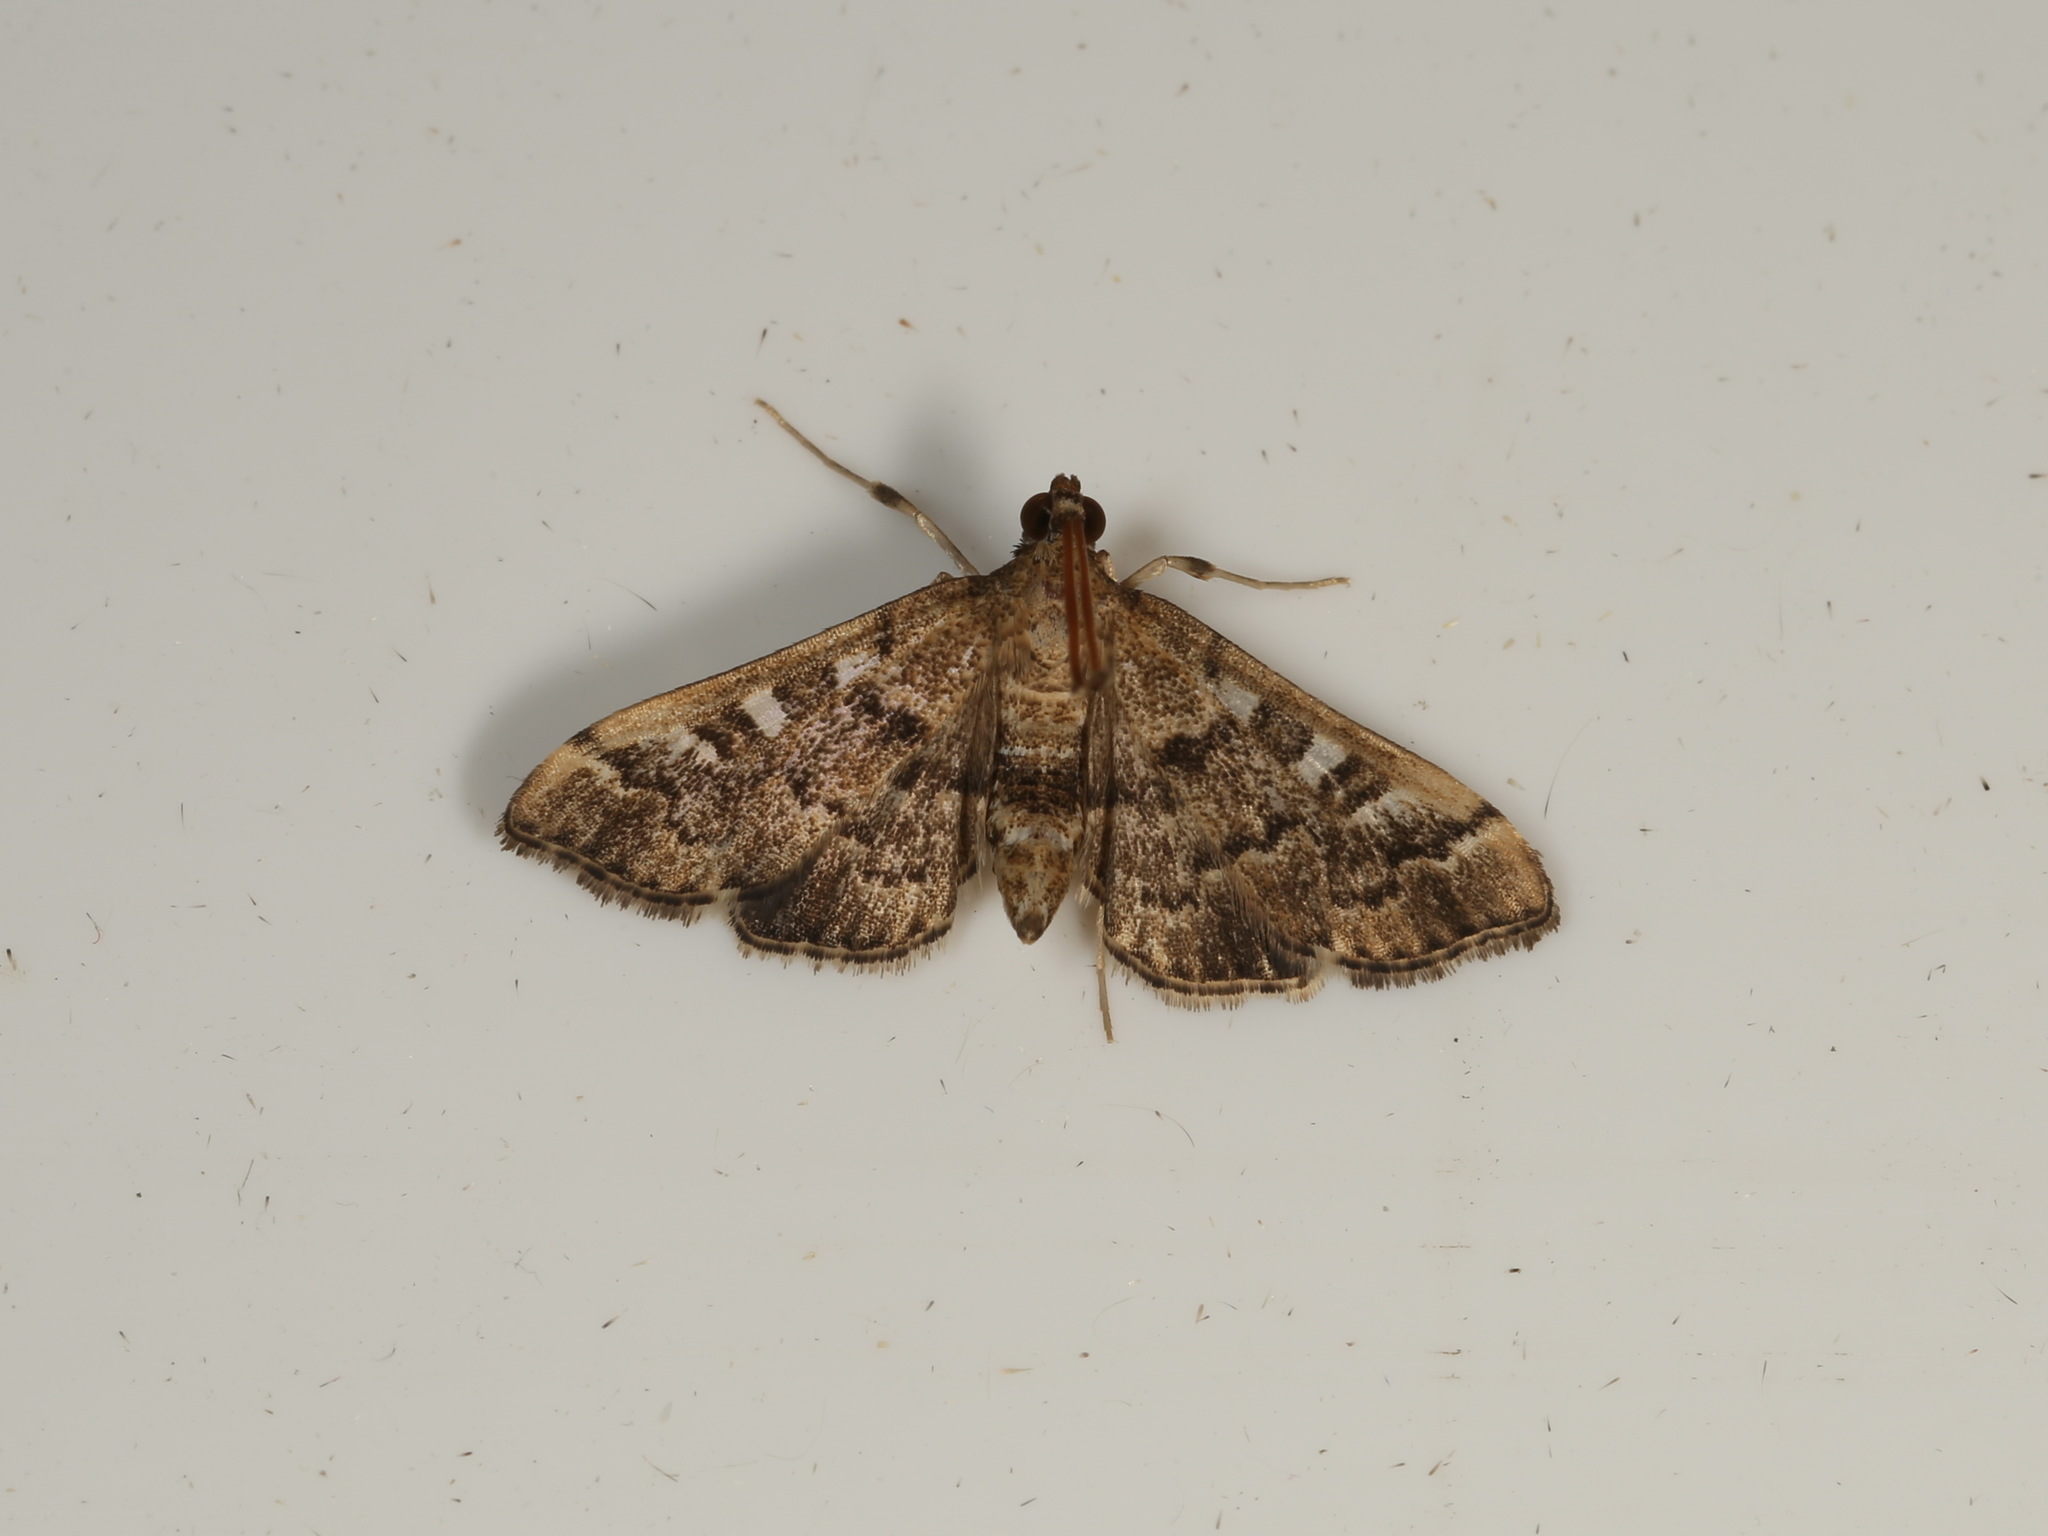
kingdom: Animalia
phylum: Arthropoda
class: Insecta
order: Lepidoptera
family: Crambidae
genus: Nacoleia
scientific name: Nacoleia rhoeoalis
